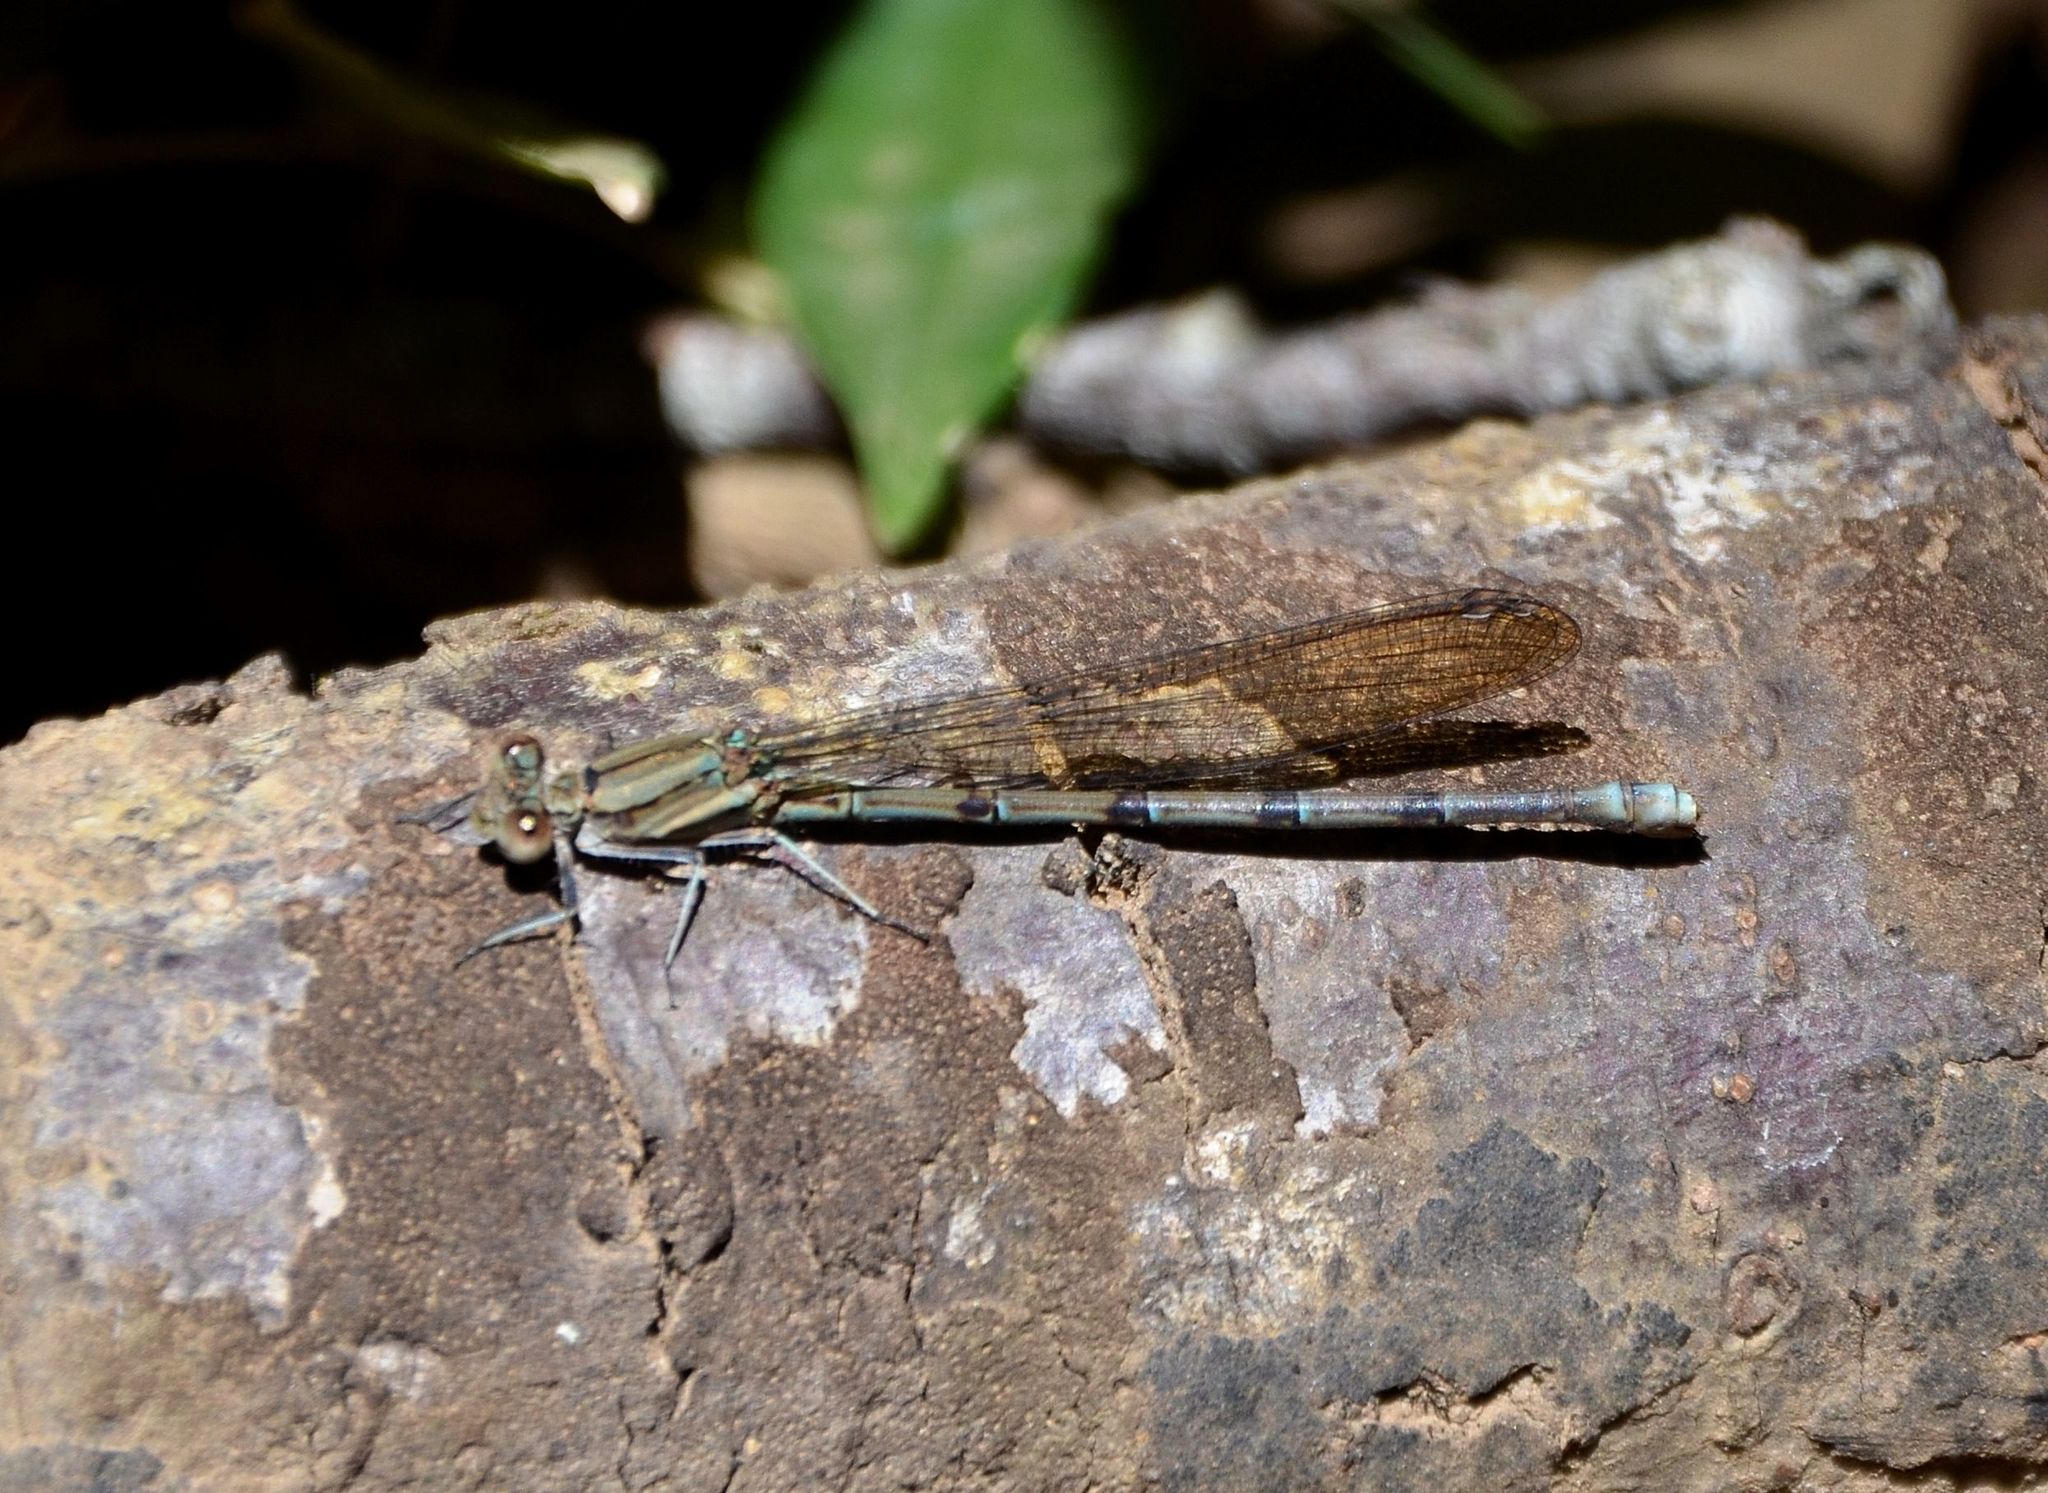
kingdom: Animalia
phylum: Arthropoda
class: Insecta
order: Odonata
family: Coenagrionidae
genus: Argia
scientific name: Argia anceps
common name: Cerulean dancer
